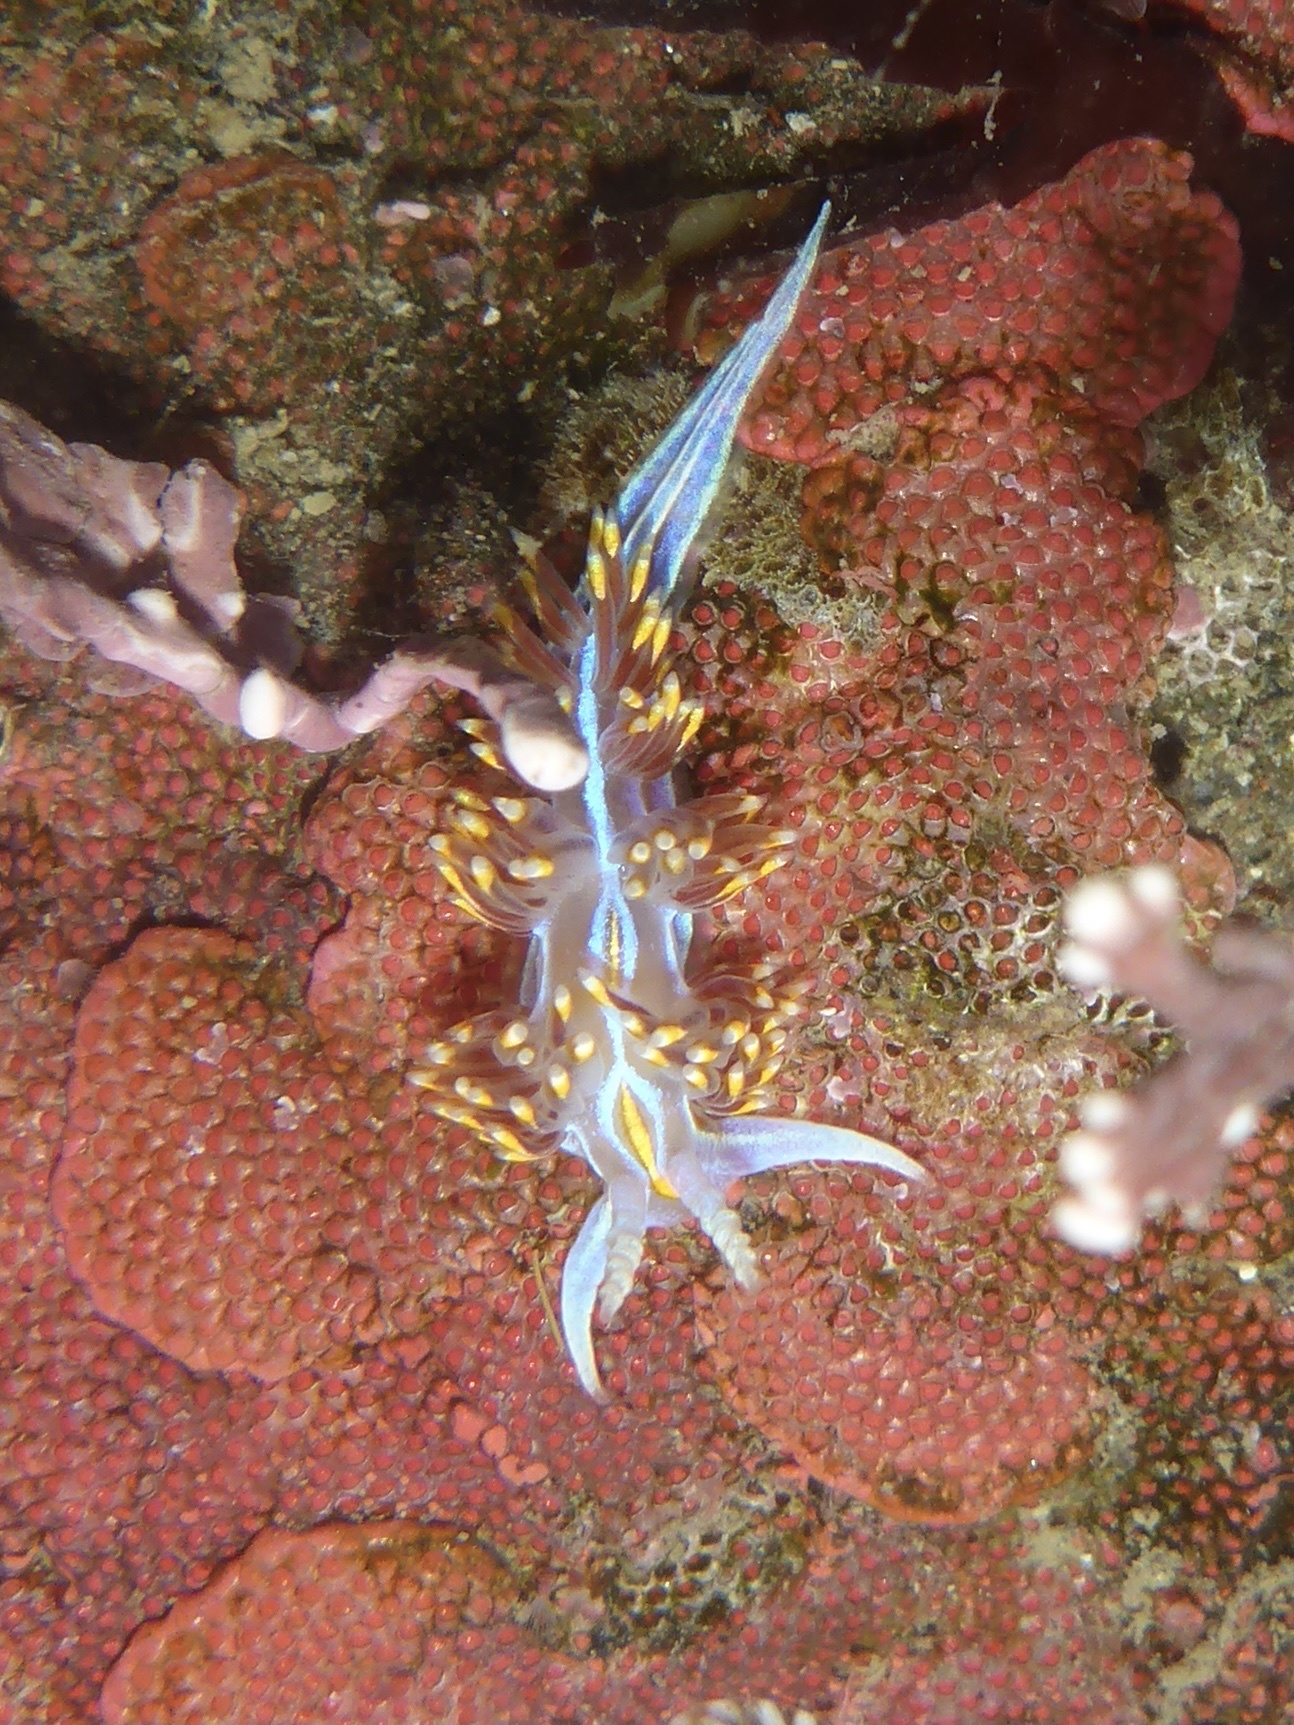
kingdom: Animalia
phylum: Mollusca
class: Gastropoda
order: Nudibranchia
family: Myrrhinidae
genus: Hermissenda
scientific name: Hermissenda opalescens
